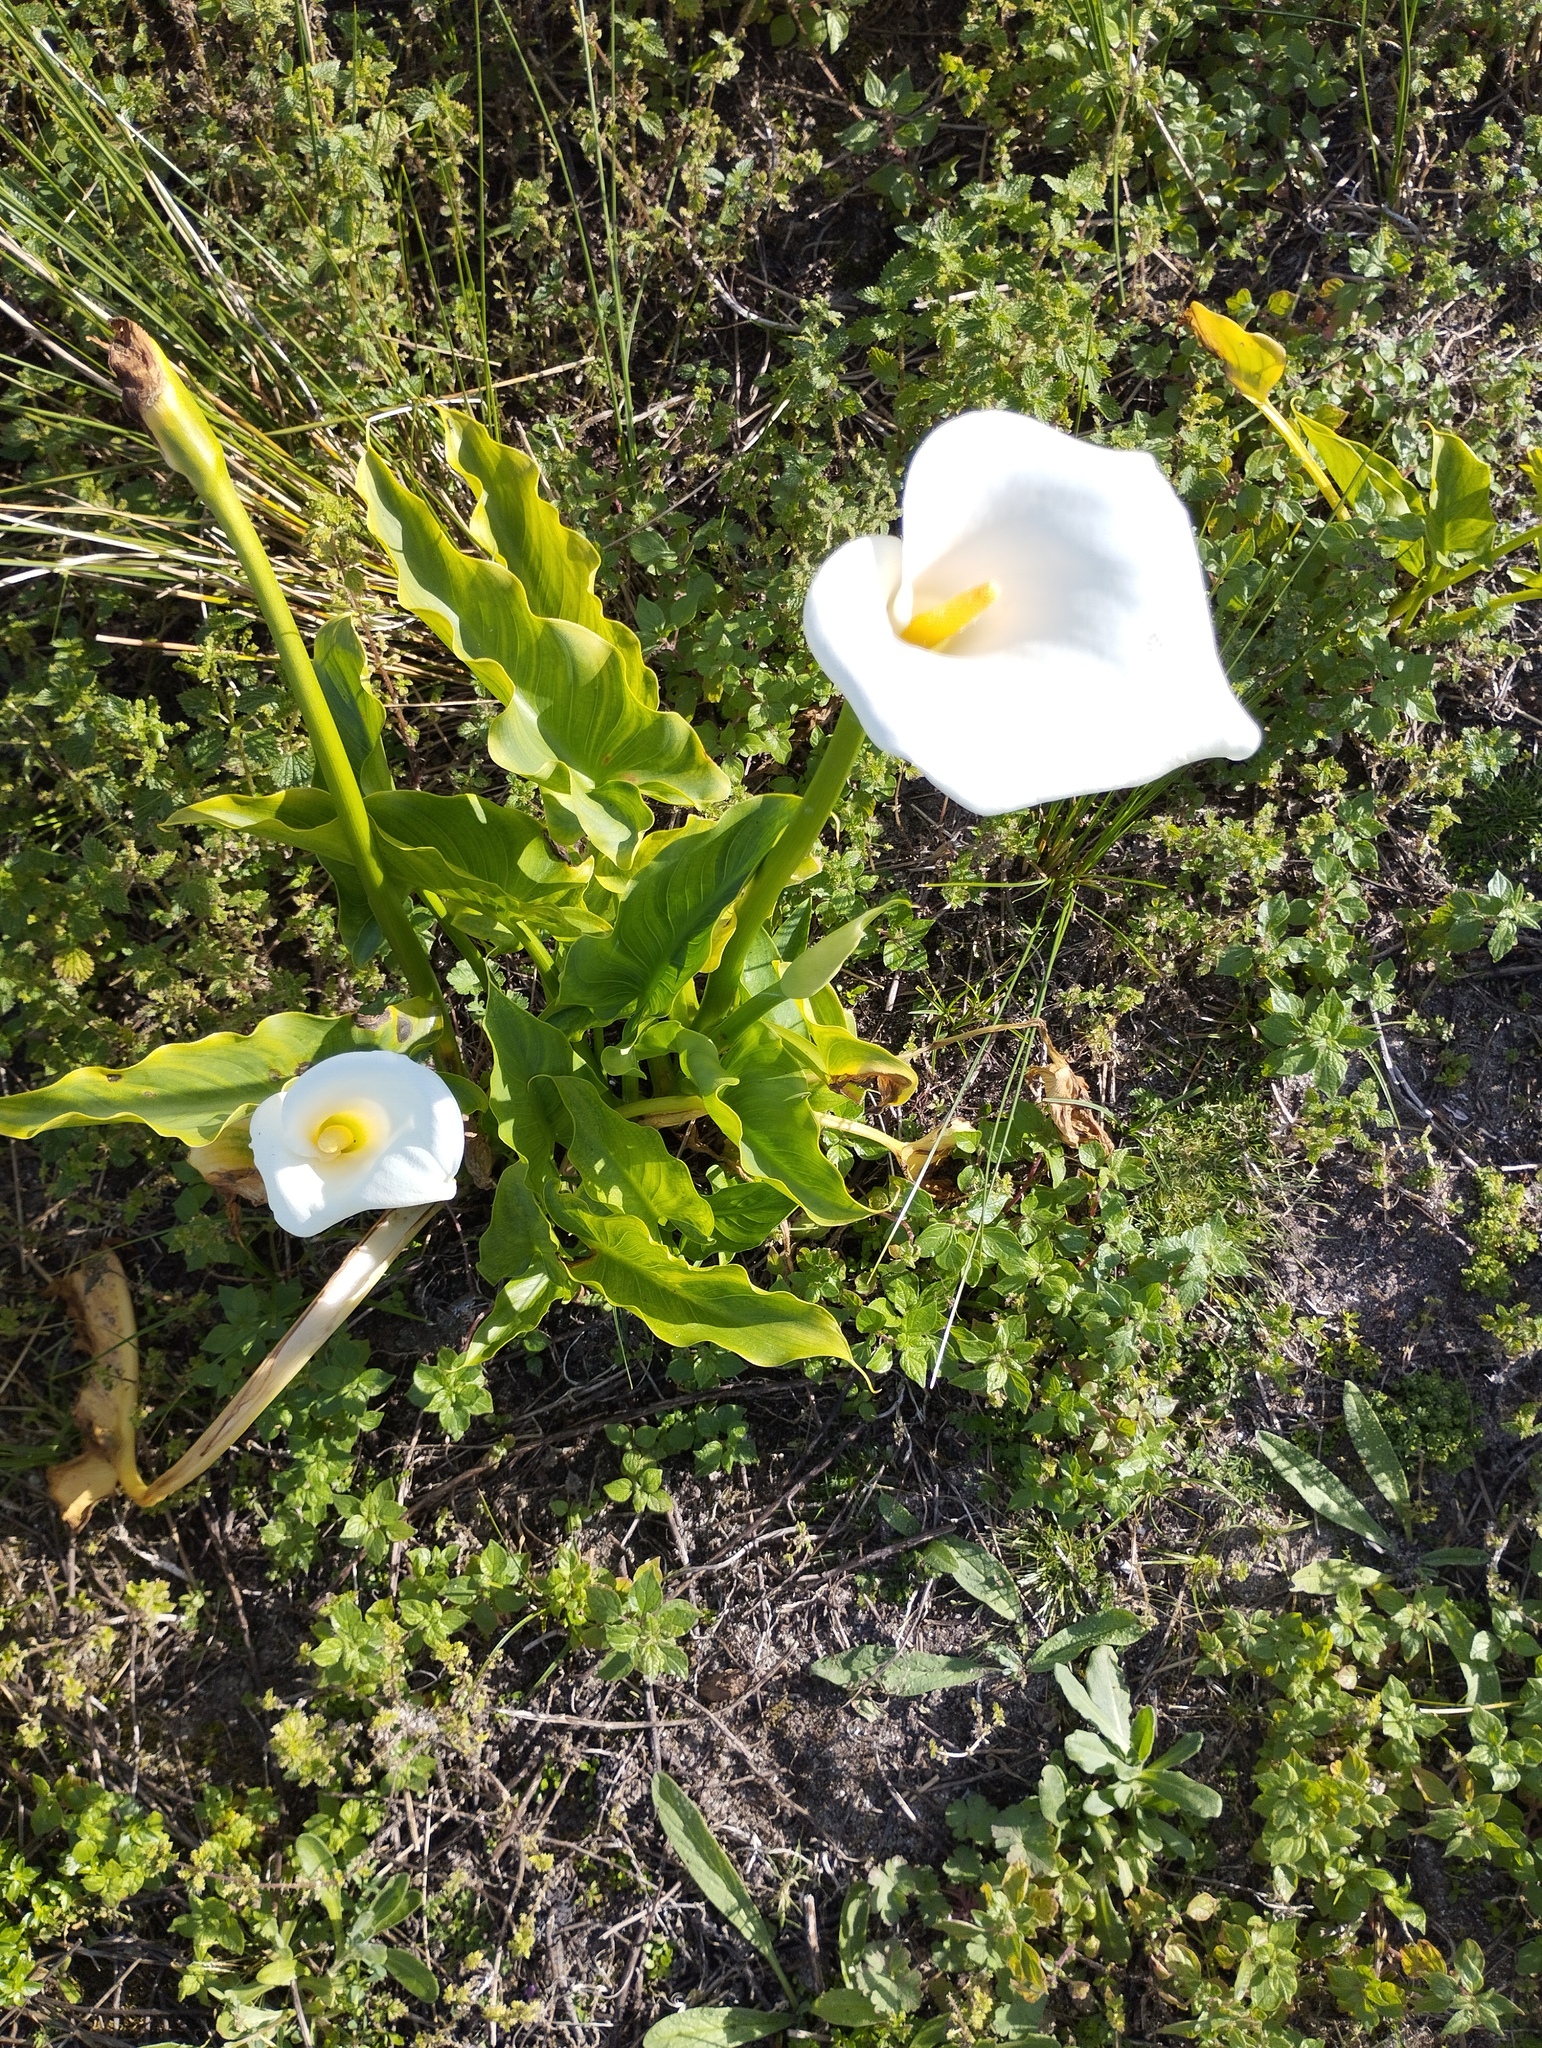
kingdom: Plantae
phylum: Tracheophyta
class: Liliopsida
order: Alismatales
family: Araceae
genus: Zantedeschia
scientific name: Zantedeschia aethiopica
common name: Altar-lily
